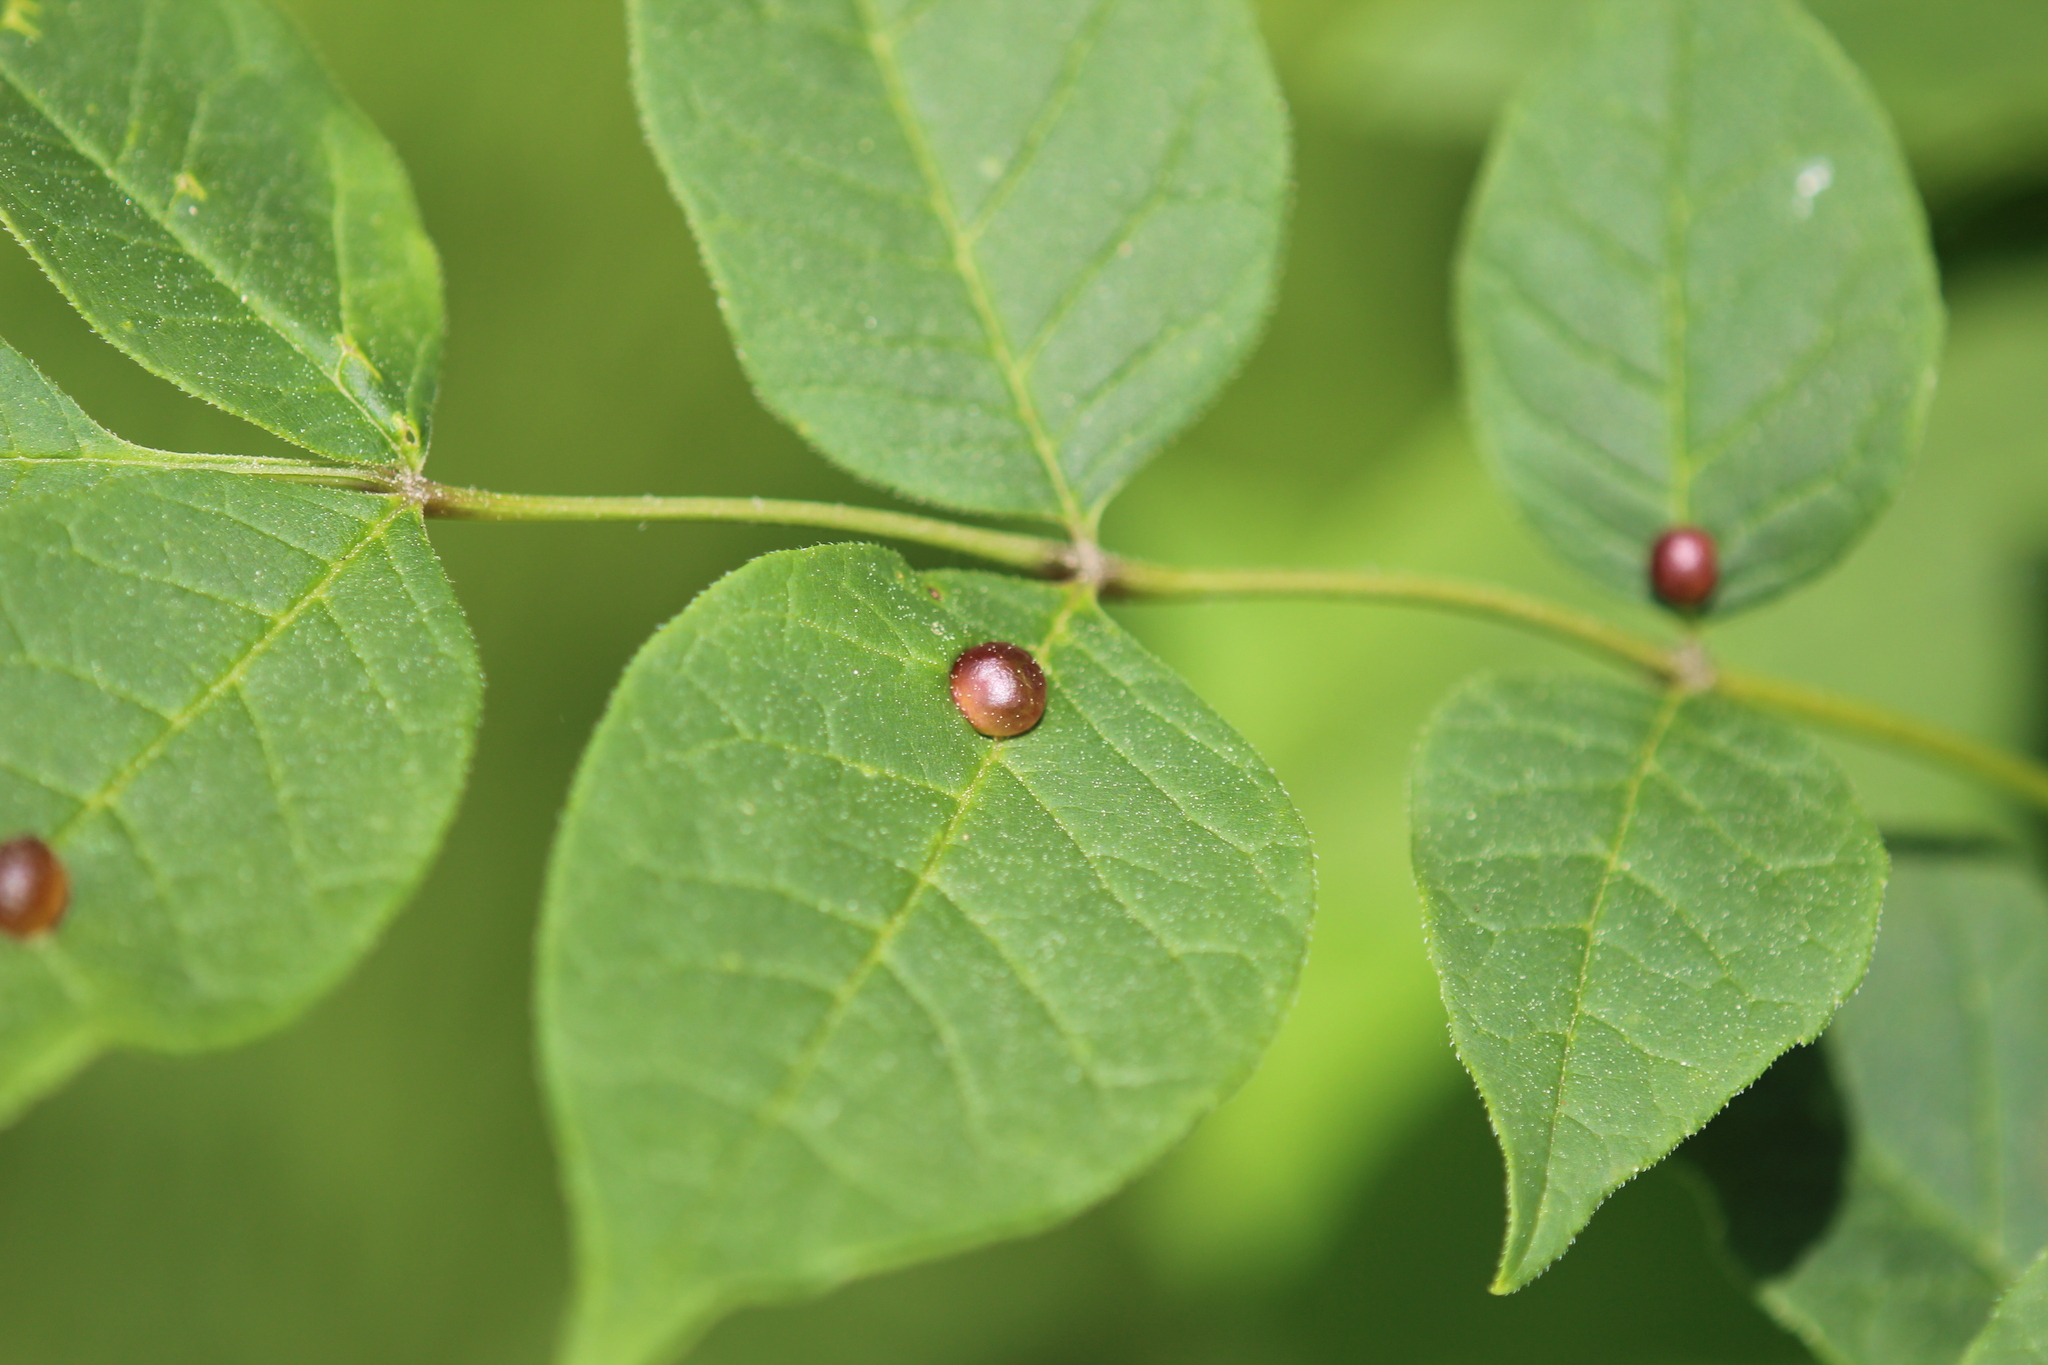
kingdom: Animalia
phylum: Arthropoda
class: Insecta
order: Diptera
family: Cecidomyiidae
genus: Dasineura
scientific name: Dasineura pellex
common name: Ash bullet gall midge
